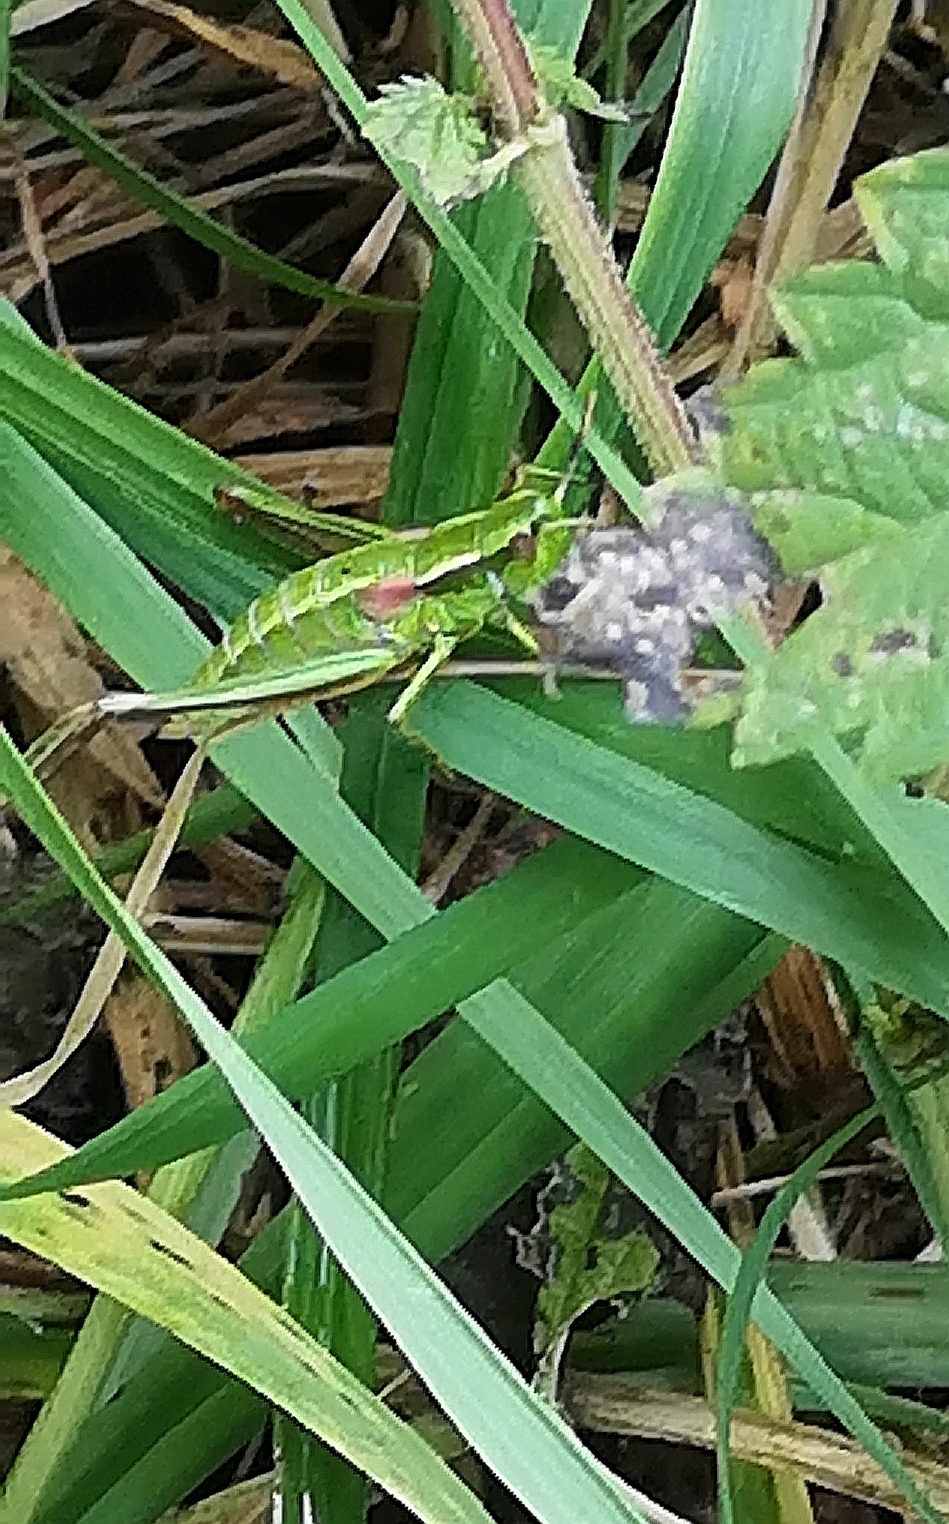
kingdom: Animalia
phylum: Arthropoda
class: Insecta
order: Orthoptera
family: Acrididae
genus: Euthystira
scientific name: Euthystira brachyptera
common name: Small gold grasshopper
